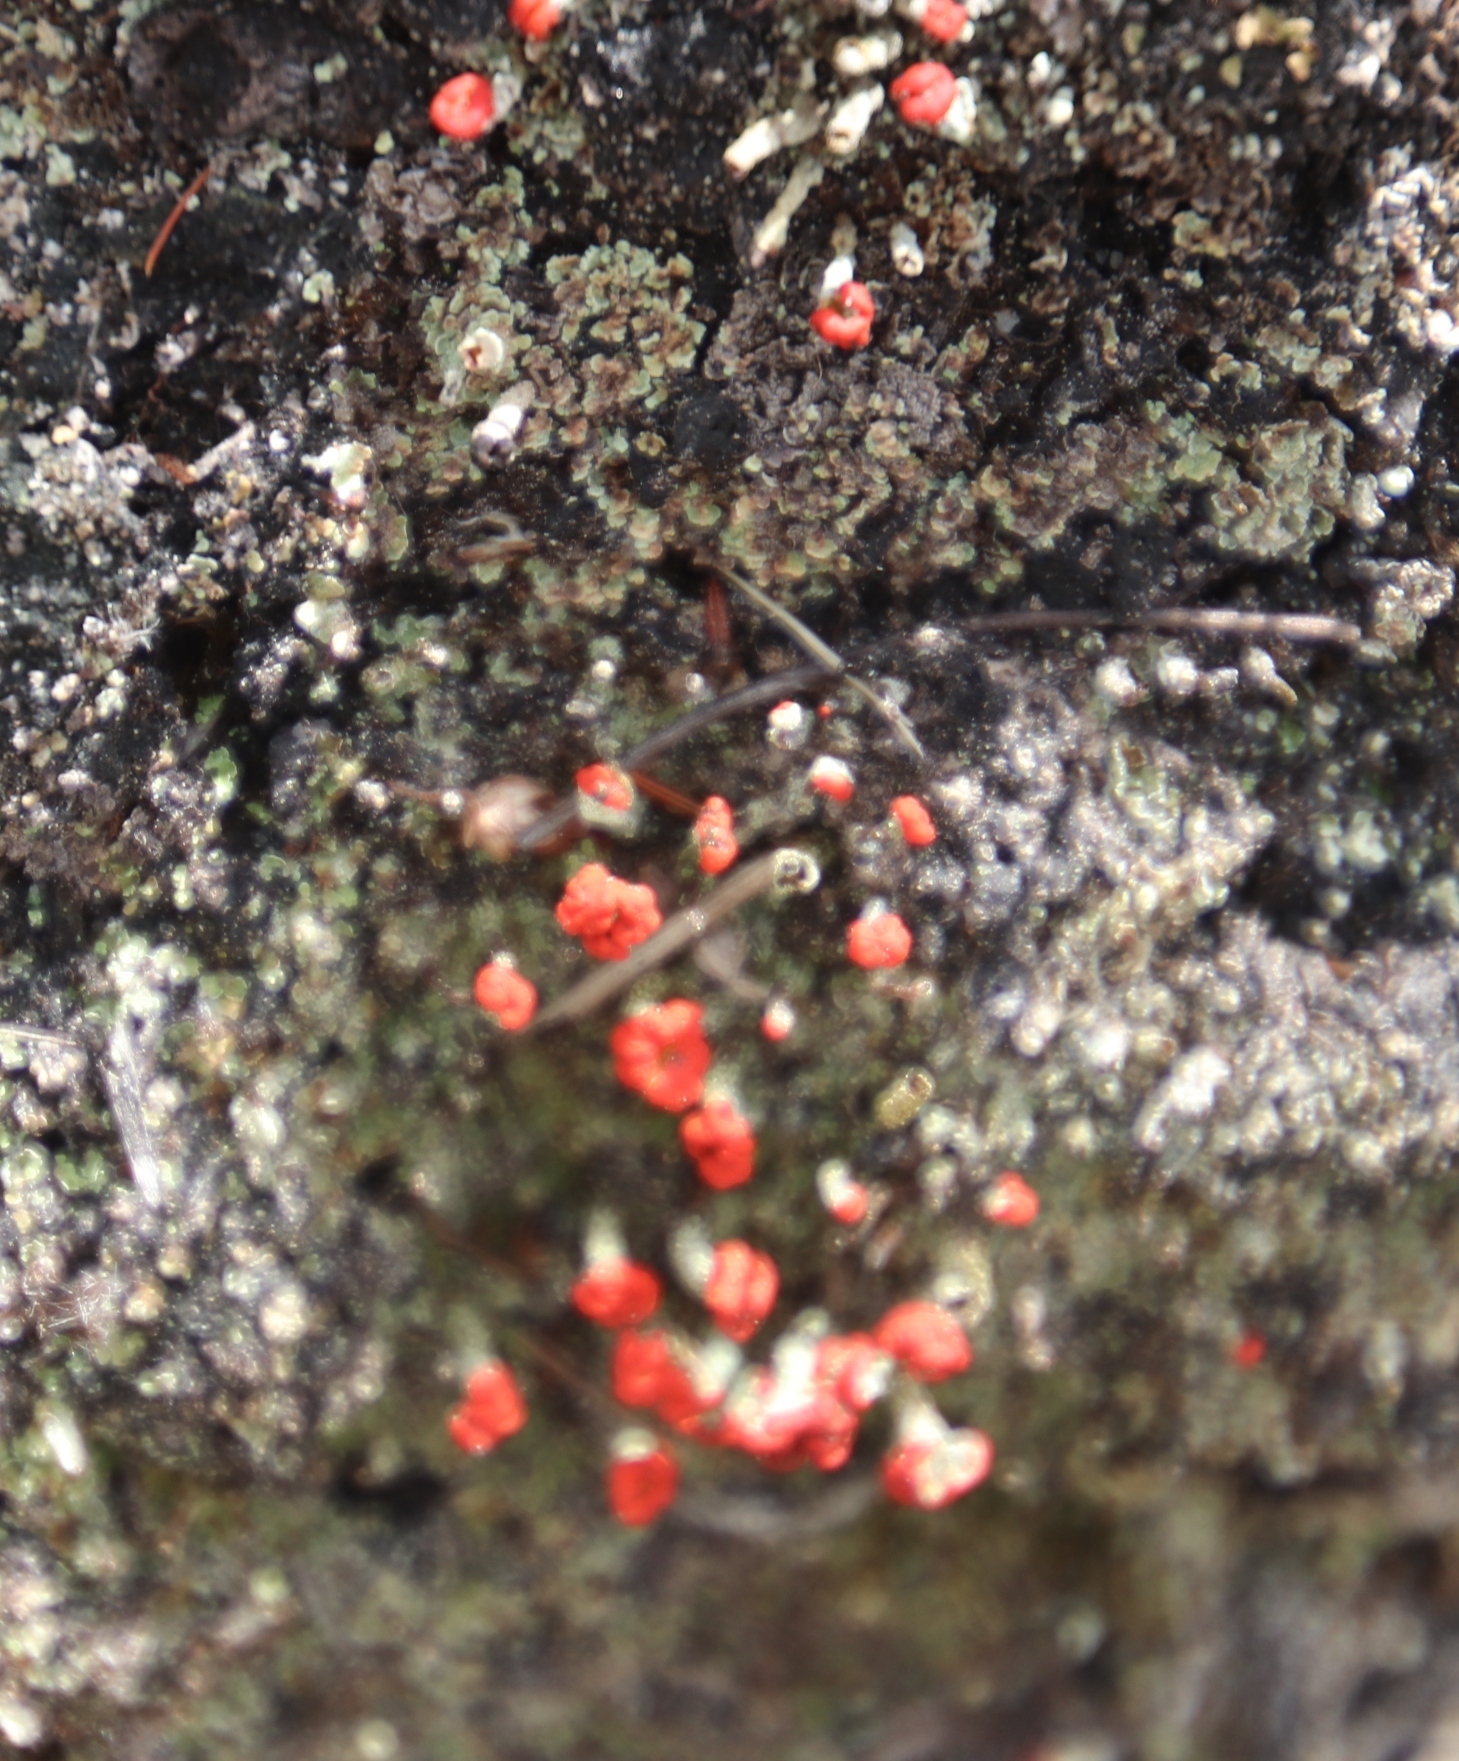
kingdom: Fungi
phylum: Ascomycota
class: Lecanoromycetes
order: Lecanorales
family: Cladoniaceae
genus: Cladonia
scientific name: Cladonia floerkeana
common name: Gritty british soldiers lichen
